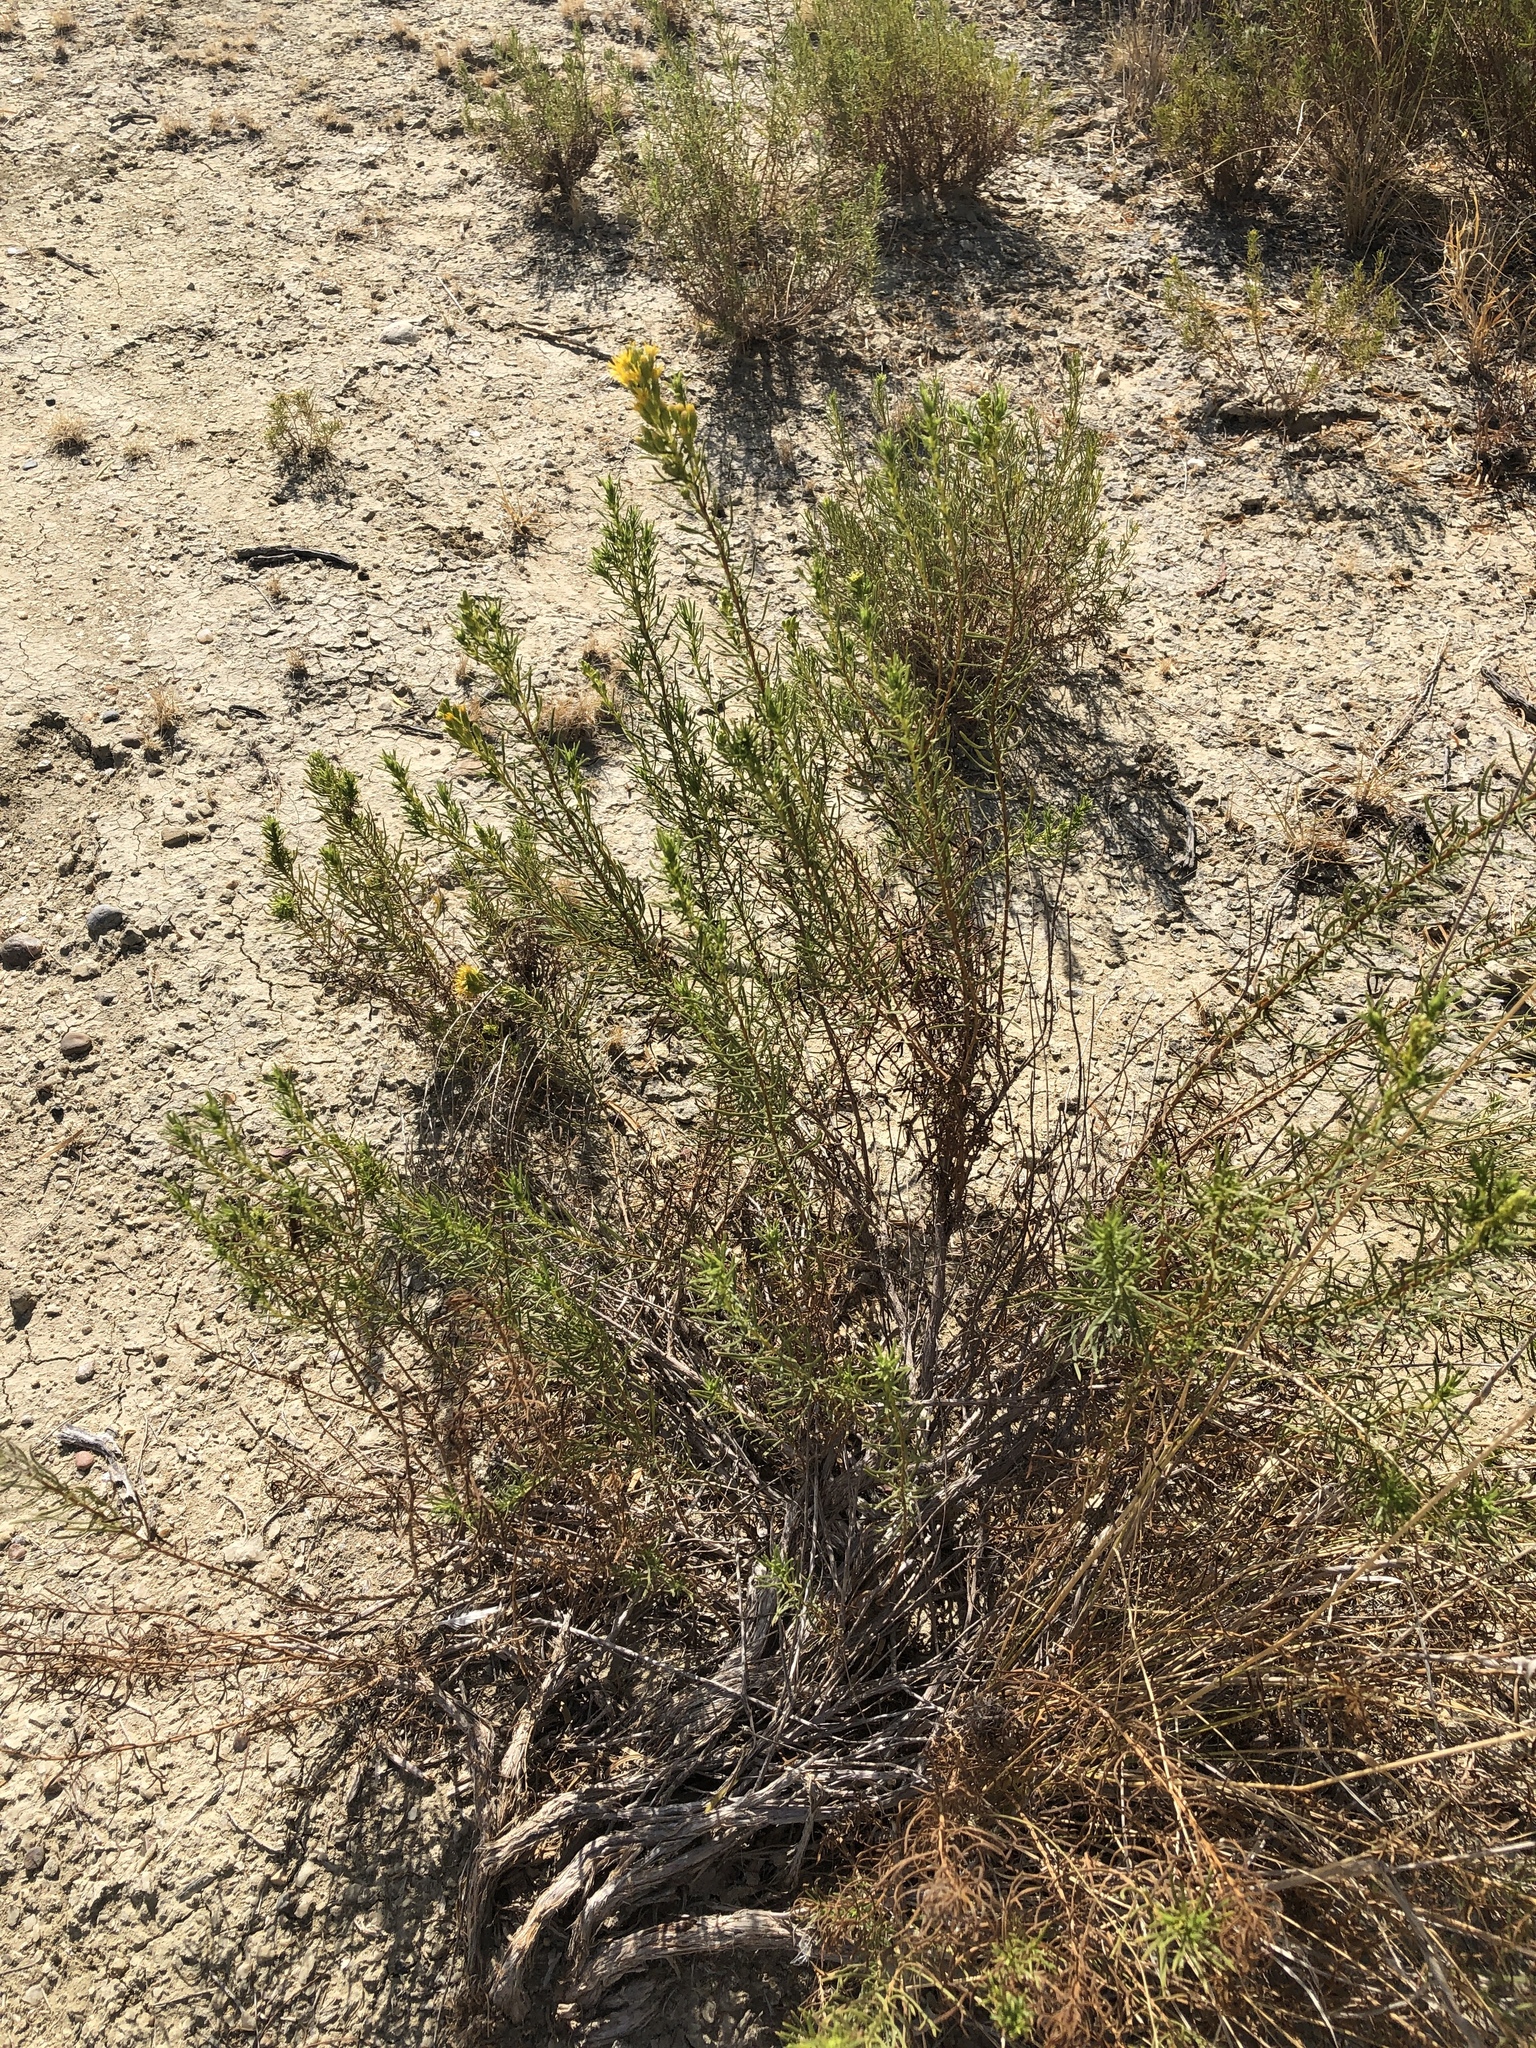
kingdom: Plantae
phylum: Tracheophyta
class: Magnoliopsida
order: Asterales
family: Asteraceae
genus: Isocoma
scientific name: Isocoma coronopifolia
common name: Common jimmyweed
